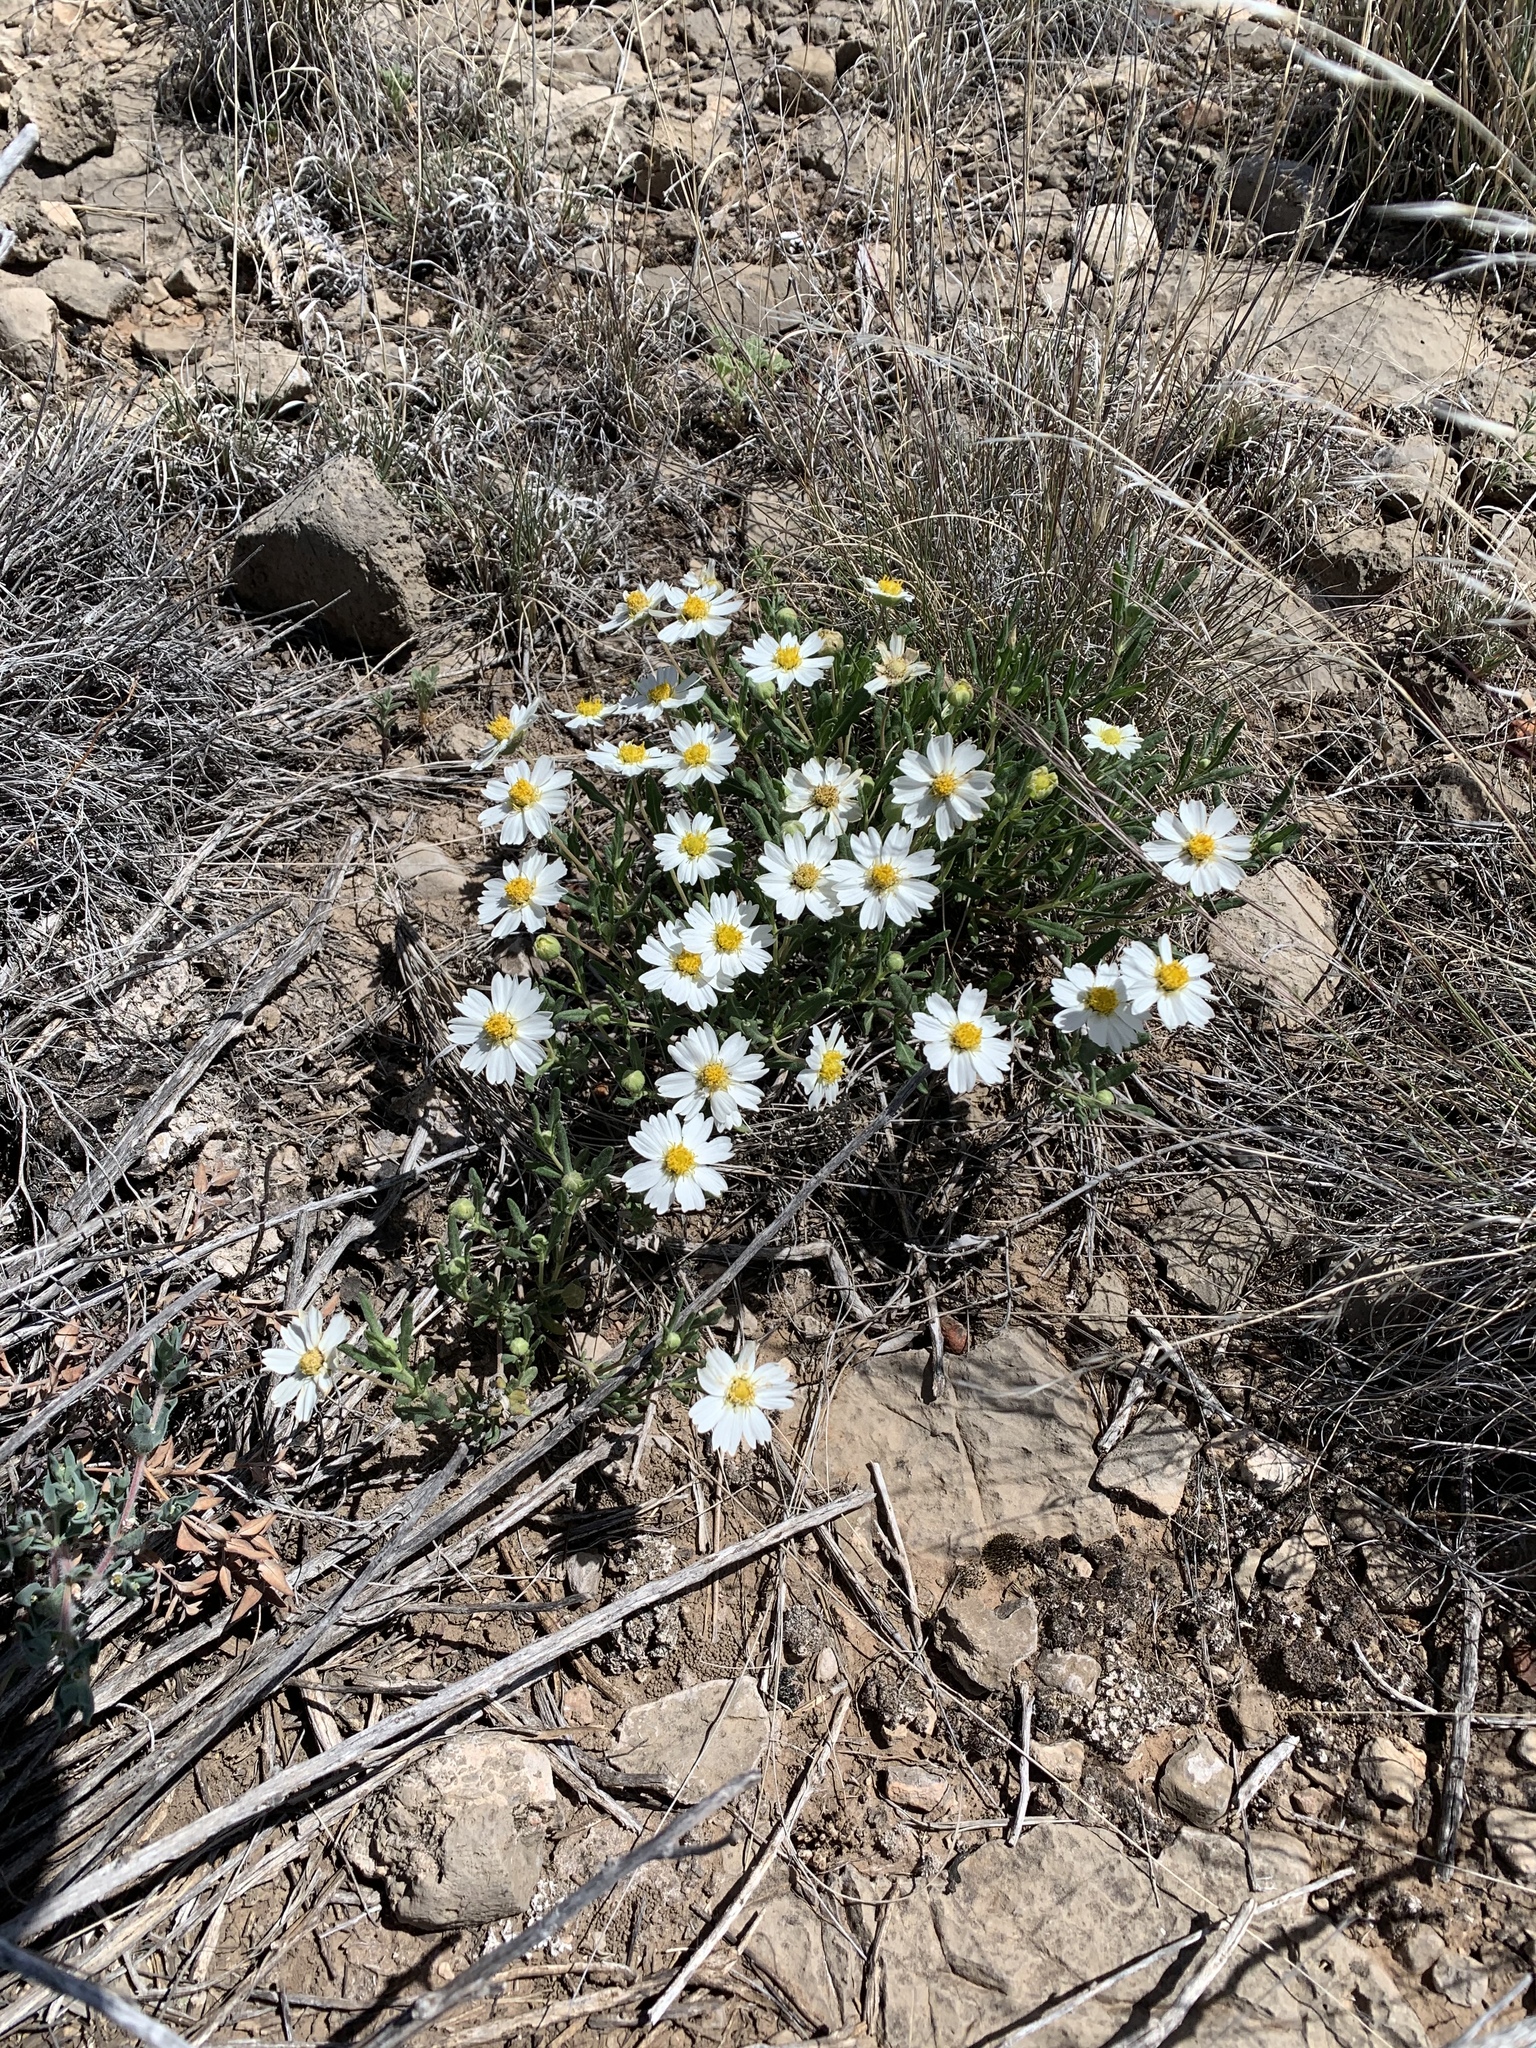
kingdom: Plantae
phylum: Tracheophyta
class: Magnoliopsida
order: Asterales
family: Asteraceae
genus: Melampodium
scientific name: Melampodium leucanthum
